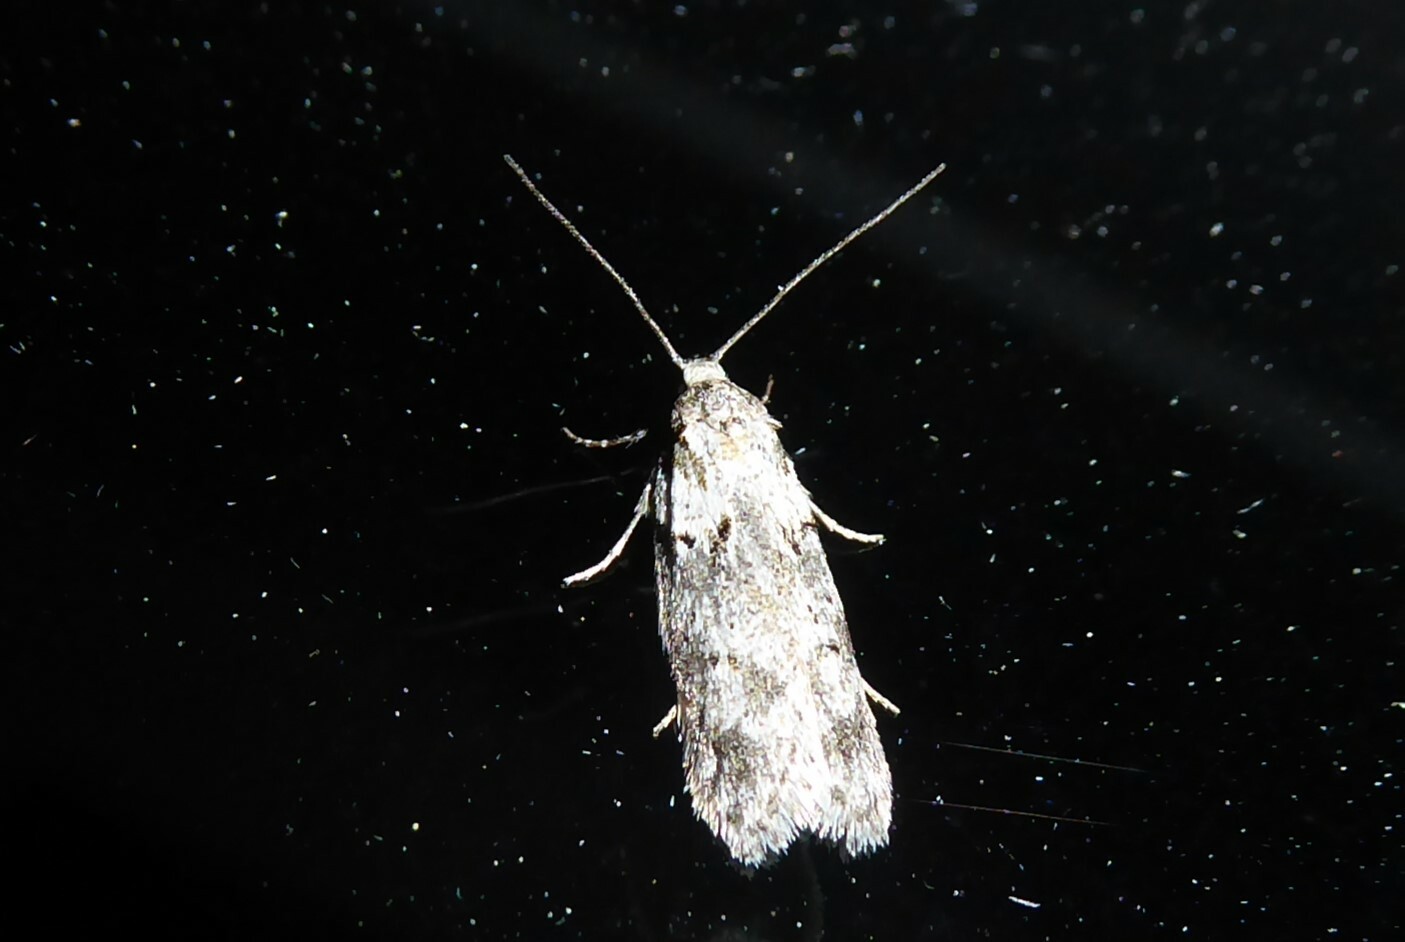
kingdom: Animalia
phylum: Arthropoda
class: Insecta
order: Lepidoptera
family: Oecophoridae
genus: Izatha
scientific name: Izatha convulsella
